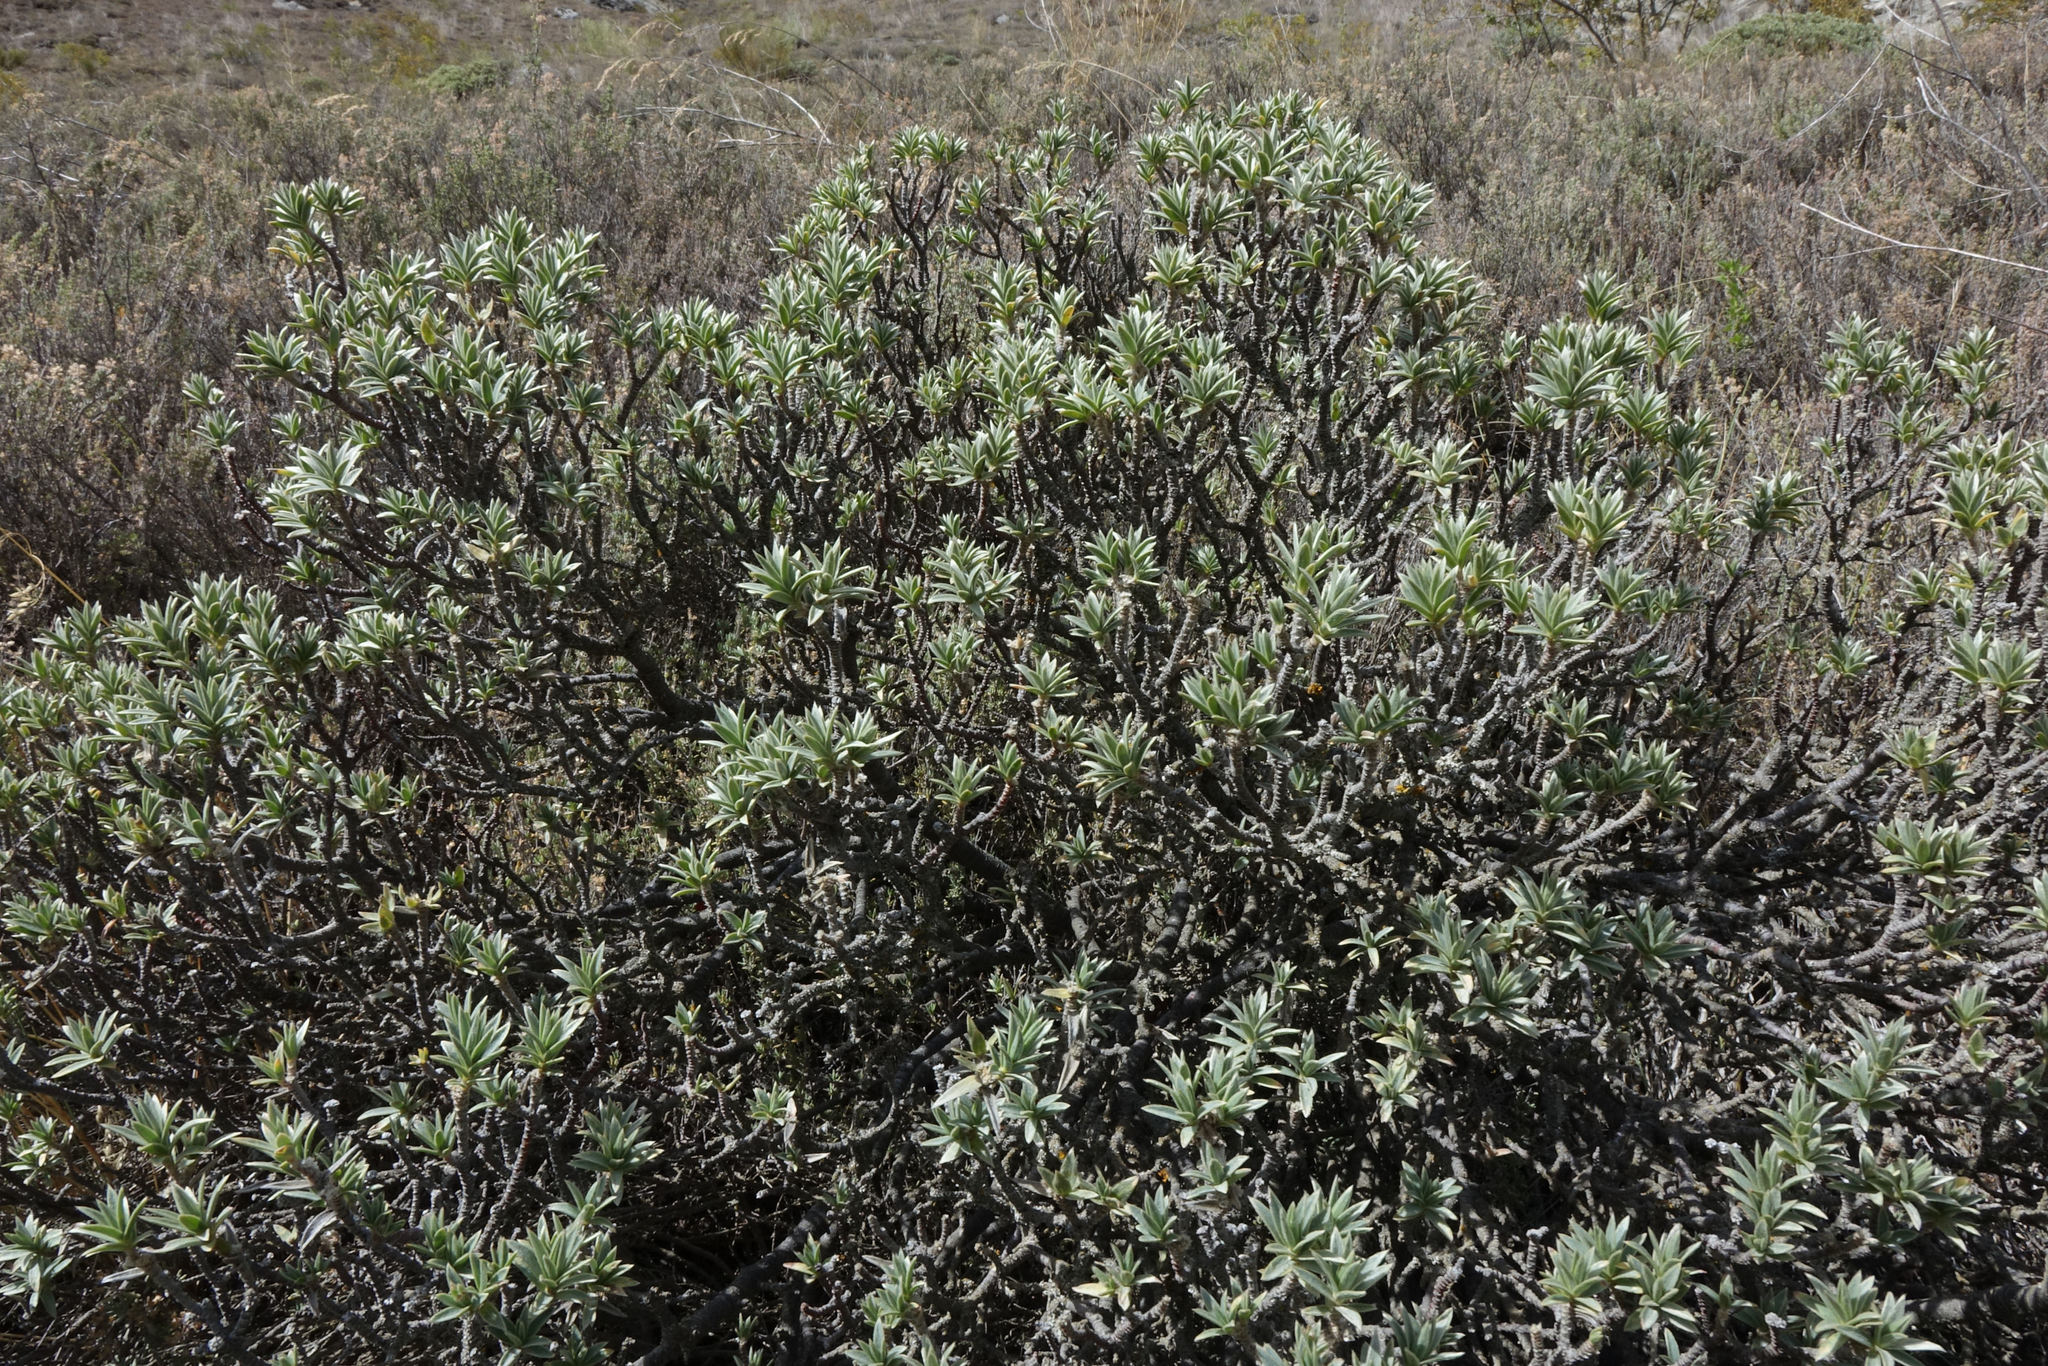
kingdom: Plantae
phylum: Tracheophyta
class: Magnoliopsida
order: Malvales
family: Thymelaeaceae
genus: Pimelea
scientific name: Pimelea aridula
